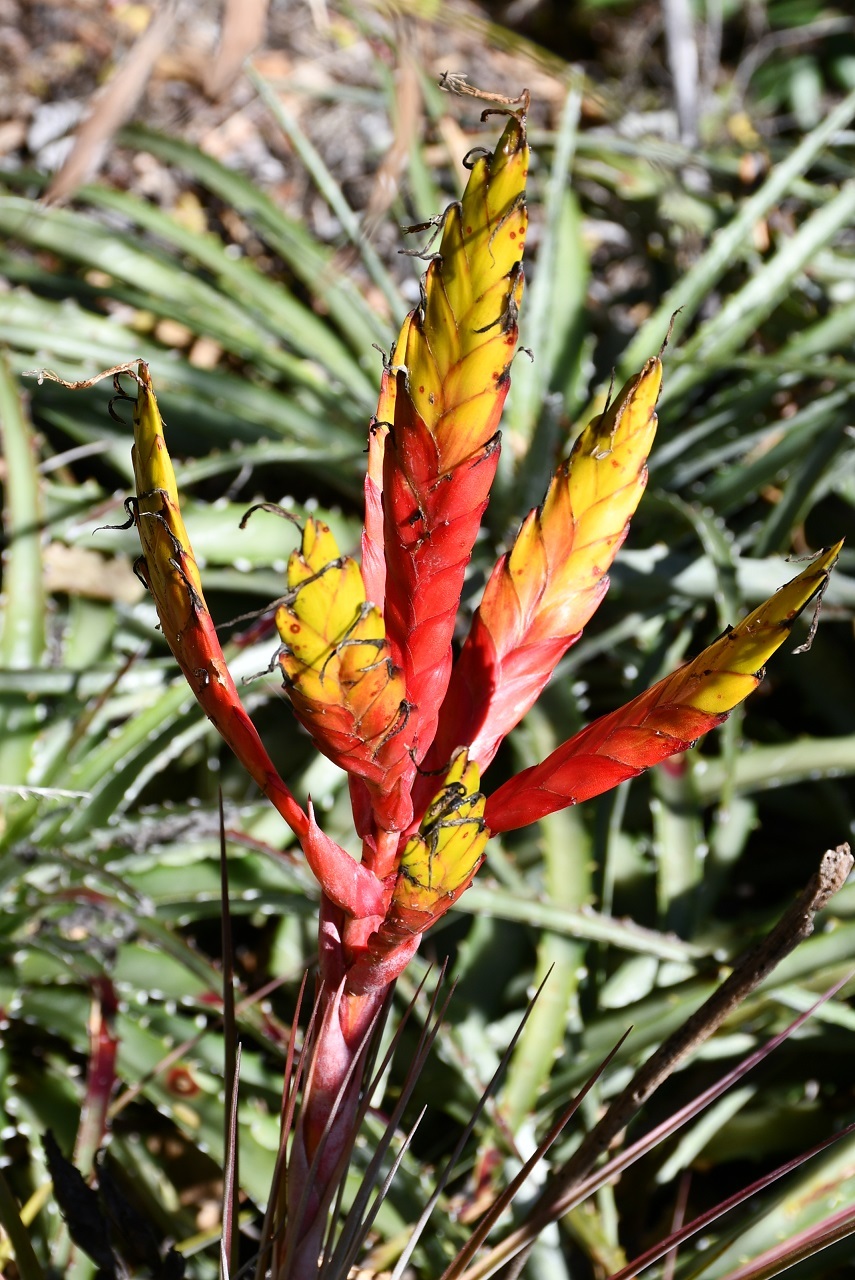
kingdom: Plantae
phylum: Tracheophyta
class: Liliopsida
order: Poales
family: Bromeliaceae
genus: Tillandsia
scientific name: Tillandsia fasciculata
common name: Giant airplant
